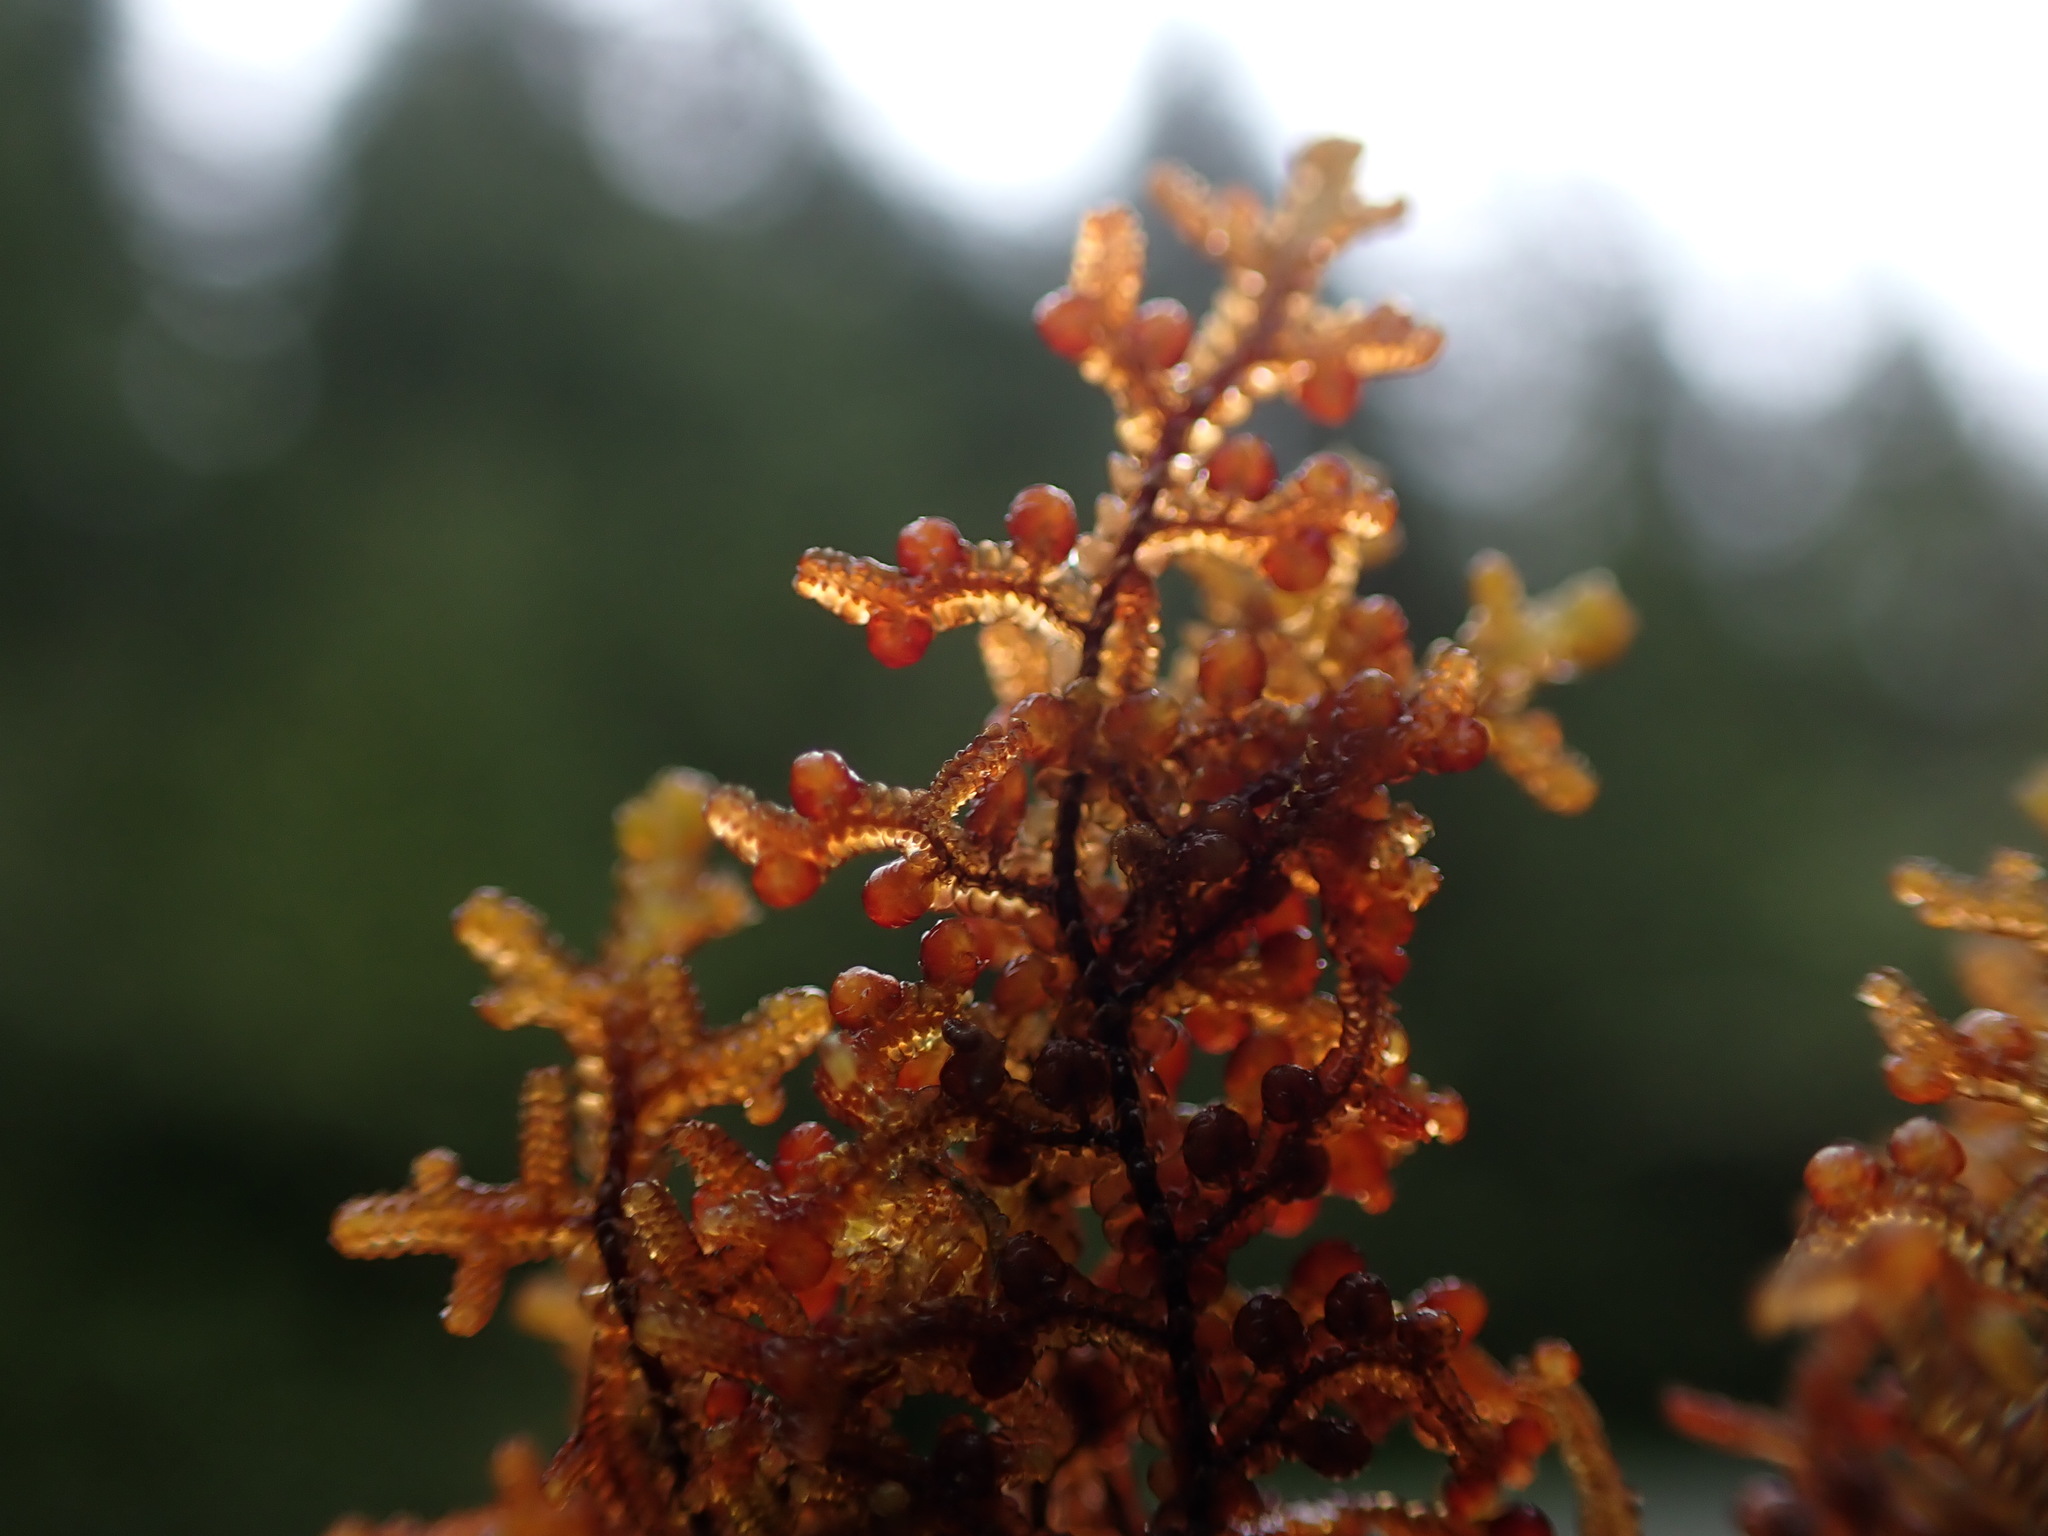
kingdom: Plantae
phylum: Marchantiophyta
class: Jungermanniopsida
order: Porellales
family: Frullaniaceae
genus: Frullania
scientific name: Frullania nisquallensis
